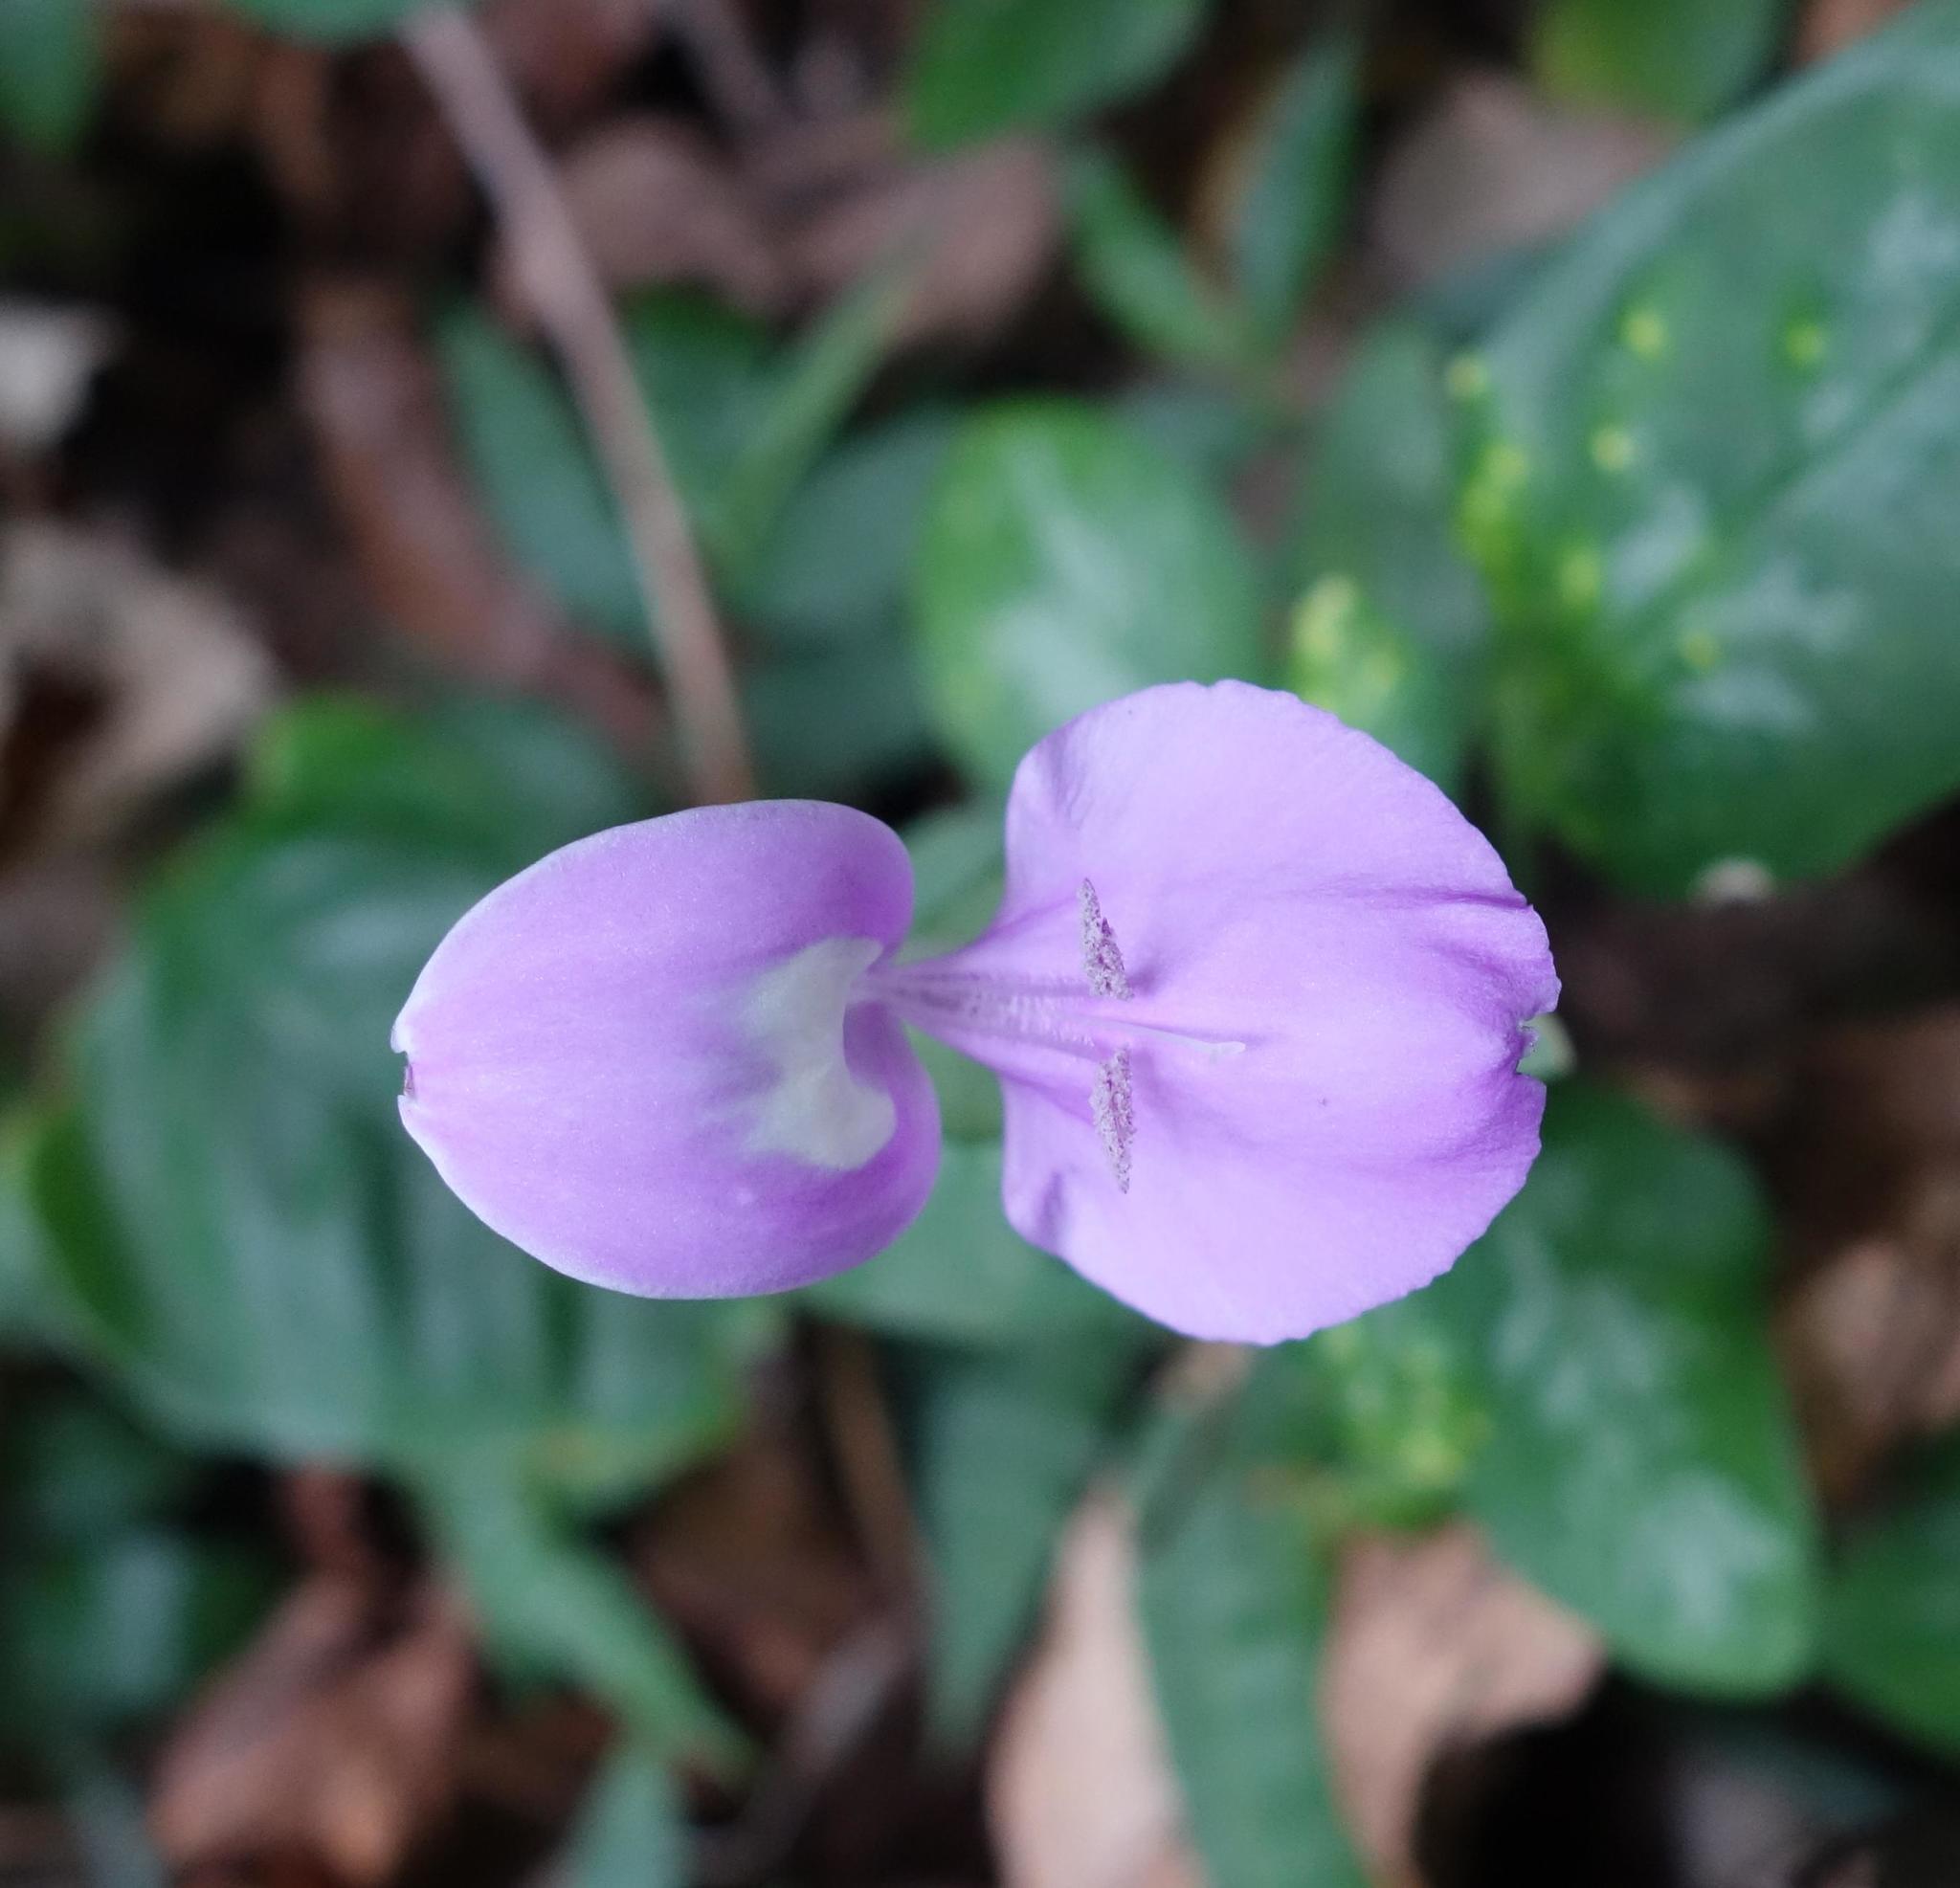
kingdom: Plantae
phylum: Tracheophyta
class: Magnoliopsida
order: Lamiales
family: Acanthaceae
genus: Dicliptera
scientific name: Dicliptera tinctoria
